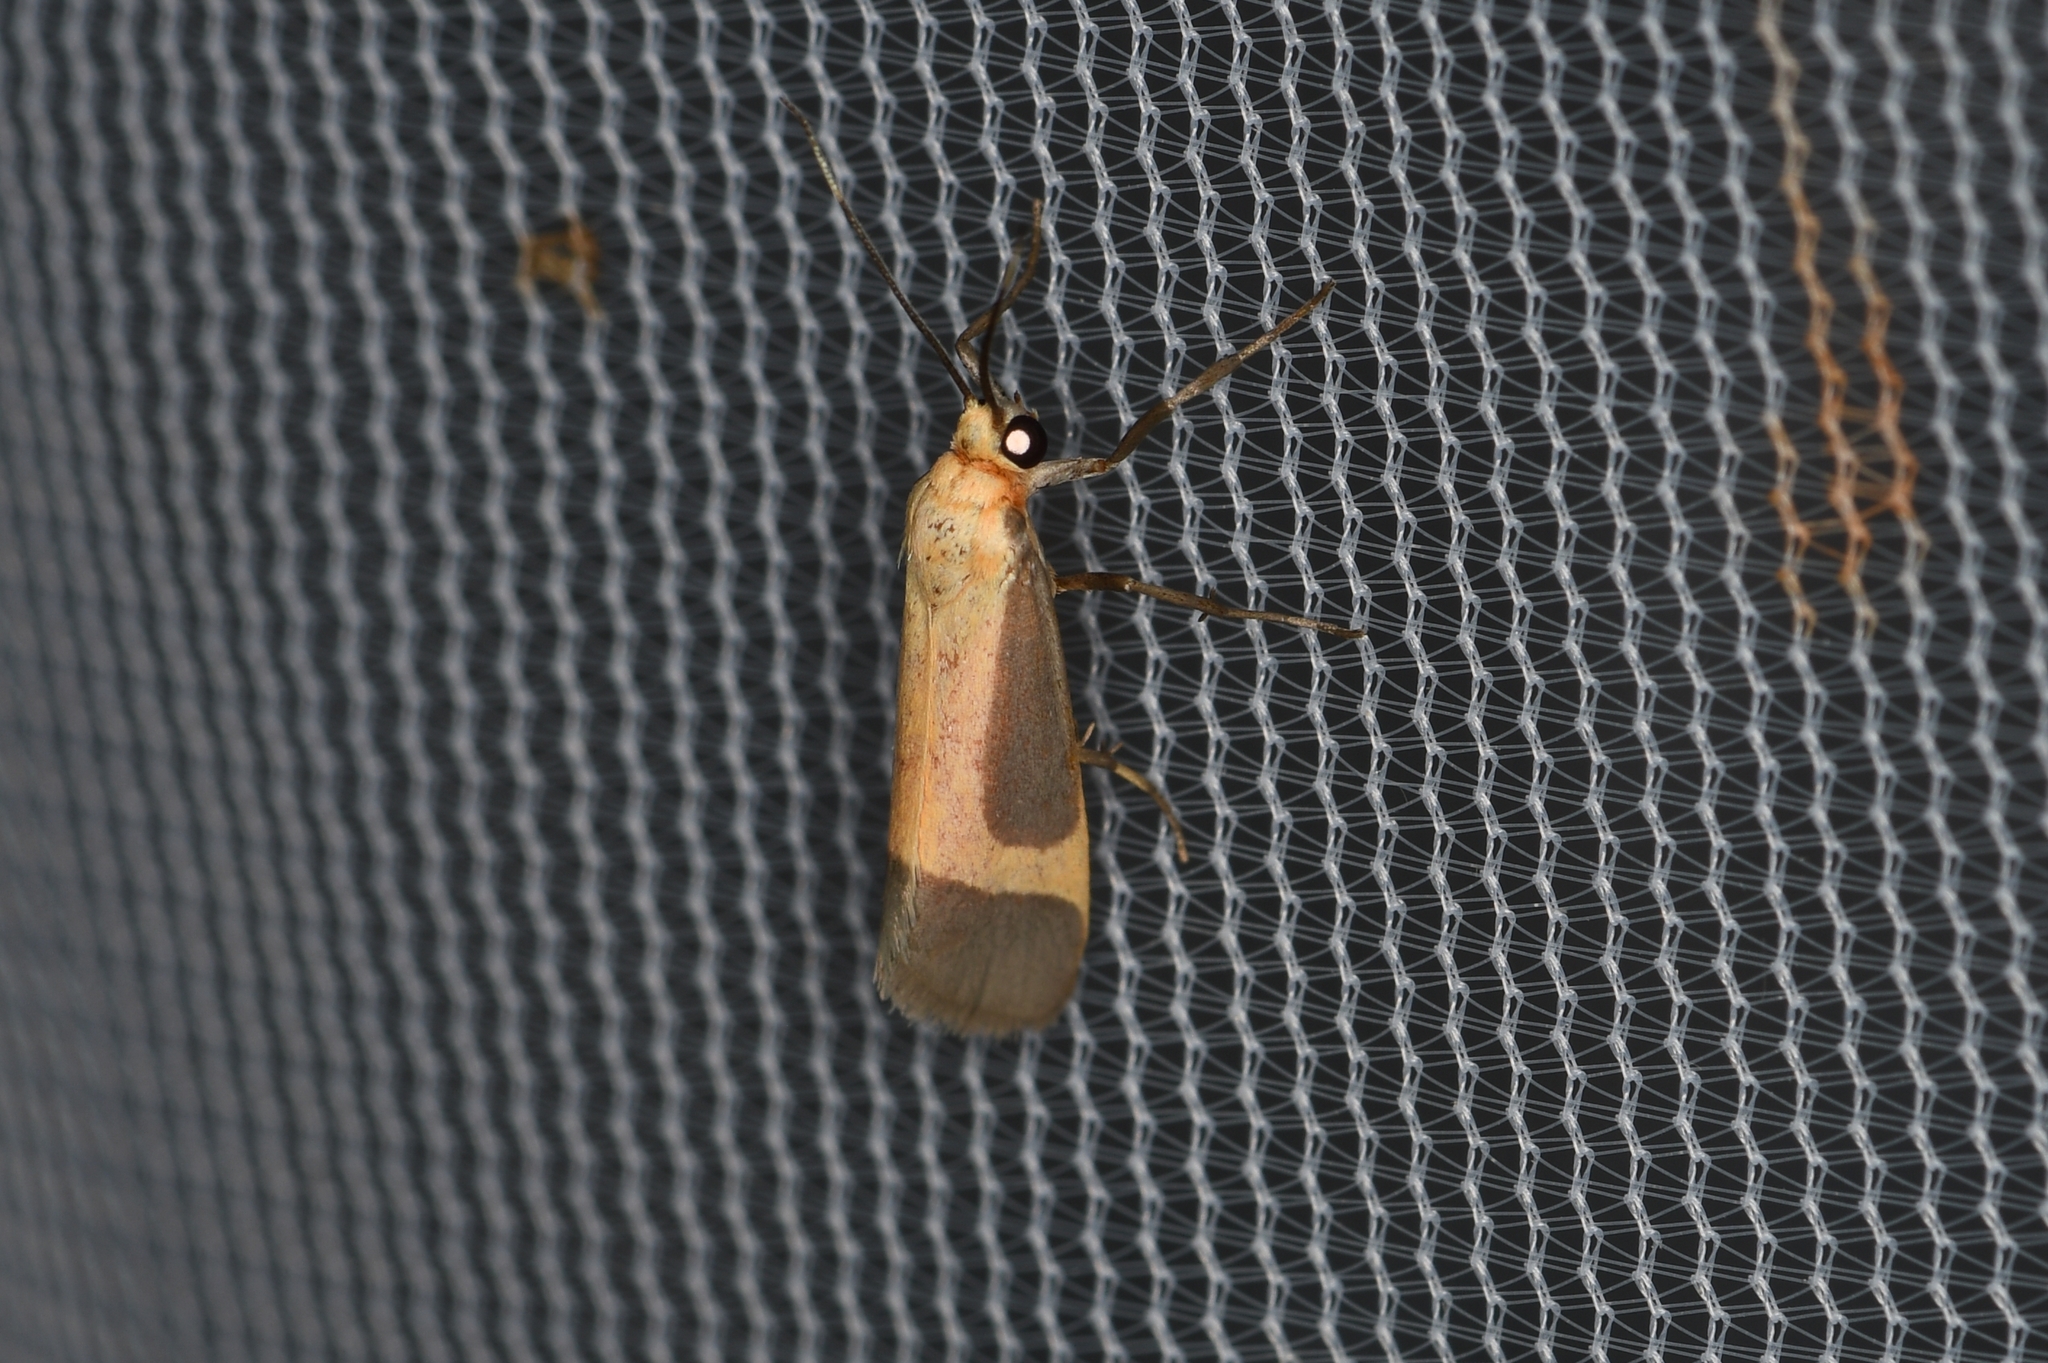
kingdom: Animalia
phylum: Arthropoda
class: Insecta
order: Lepidoptera
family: Erebidae
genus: Cisthene
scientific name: Cisthene angelus
